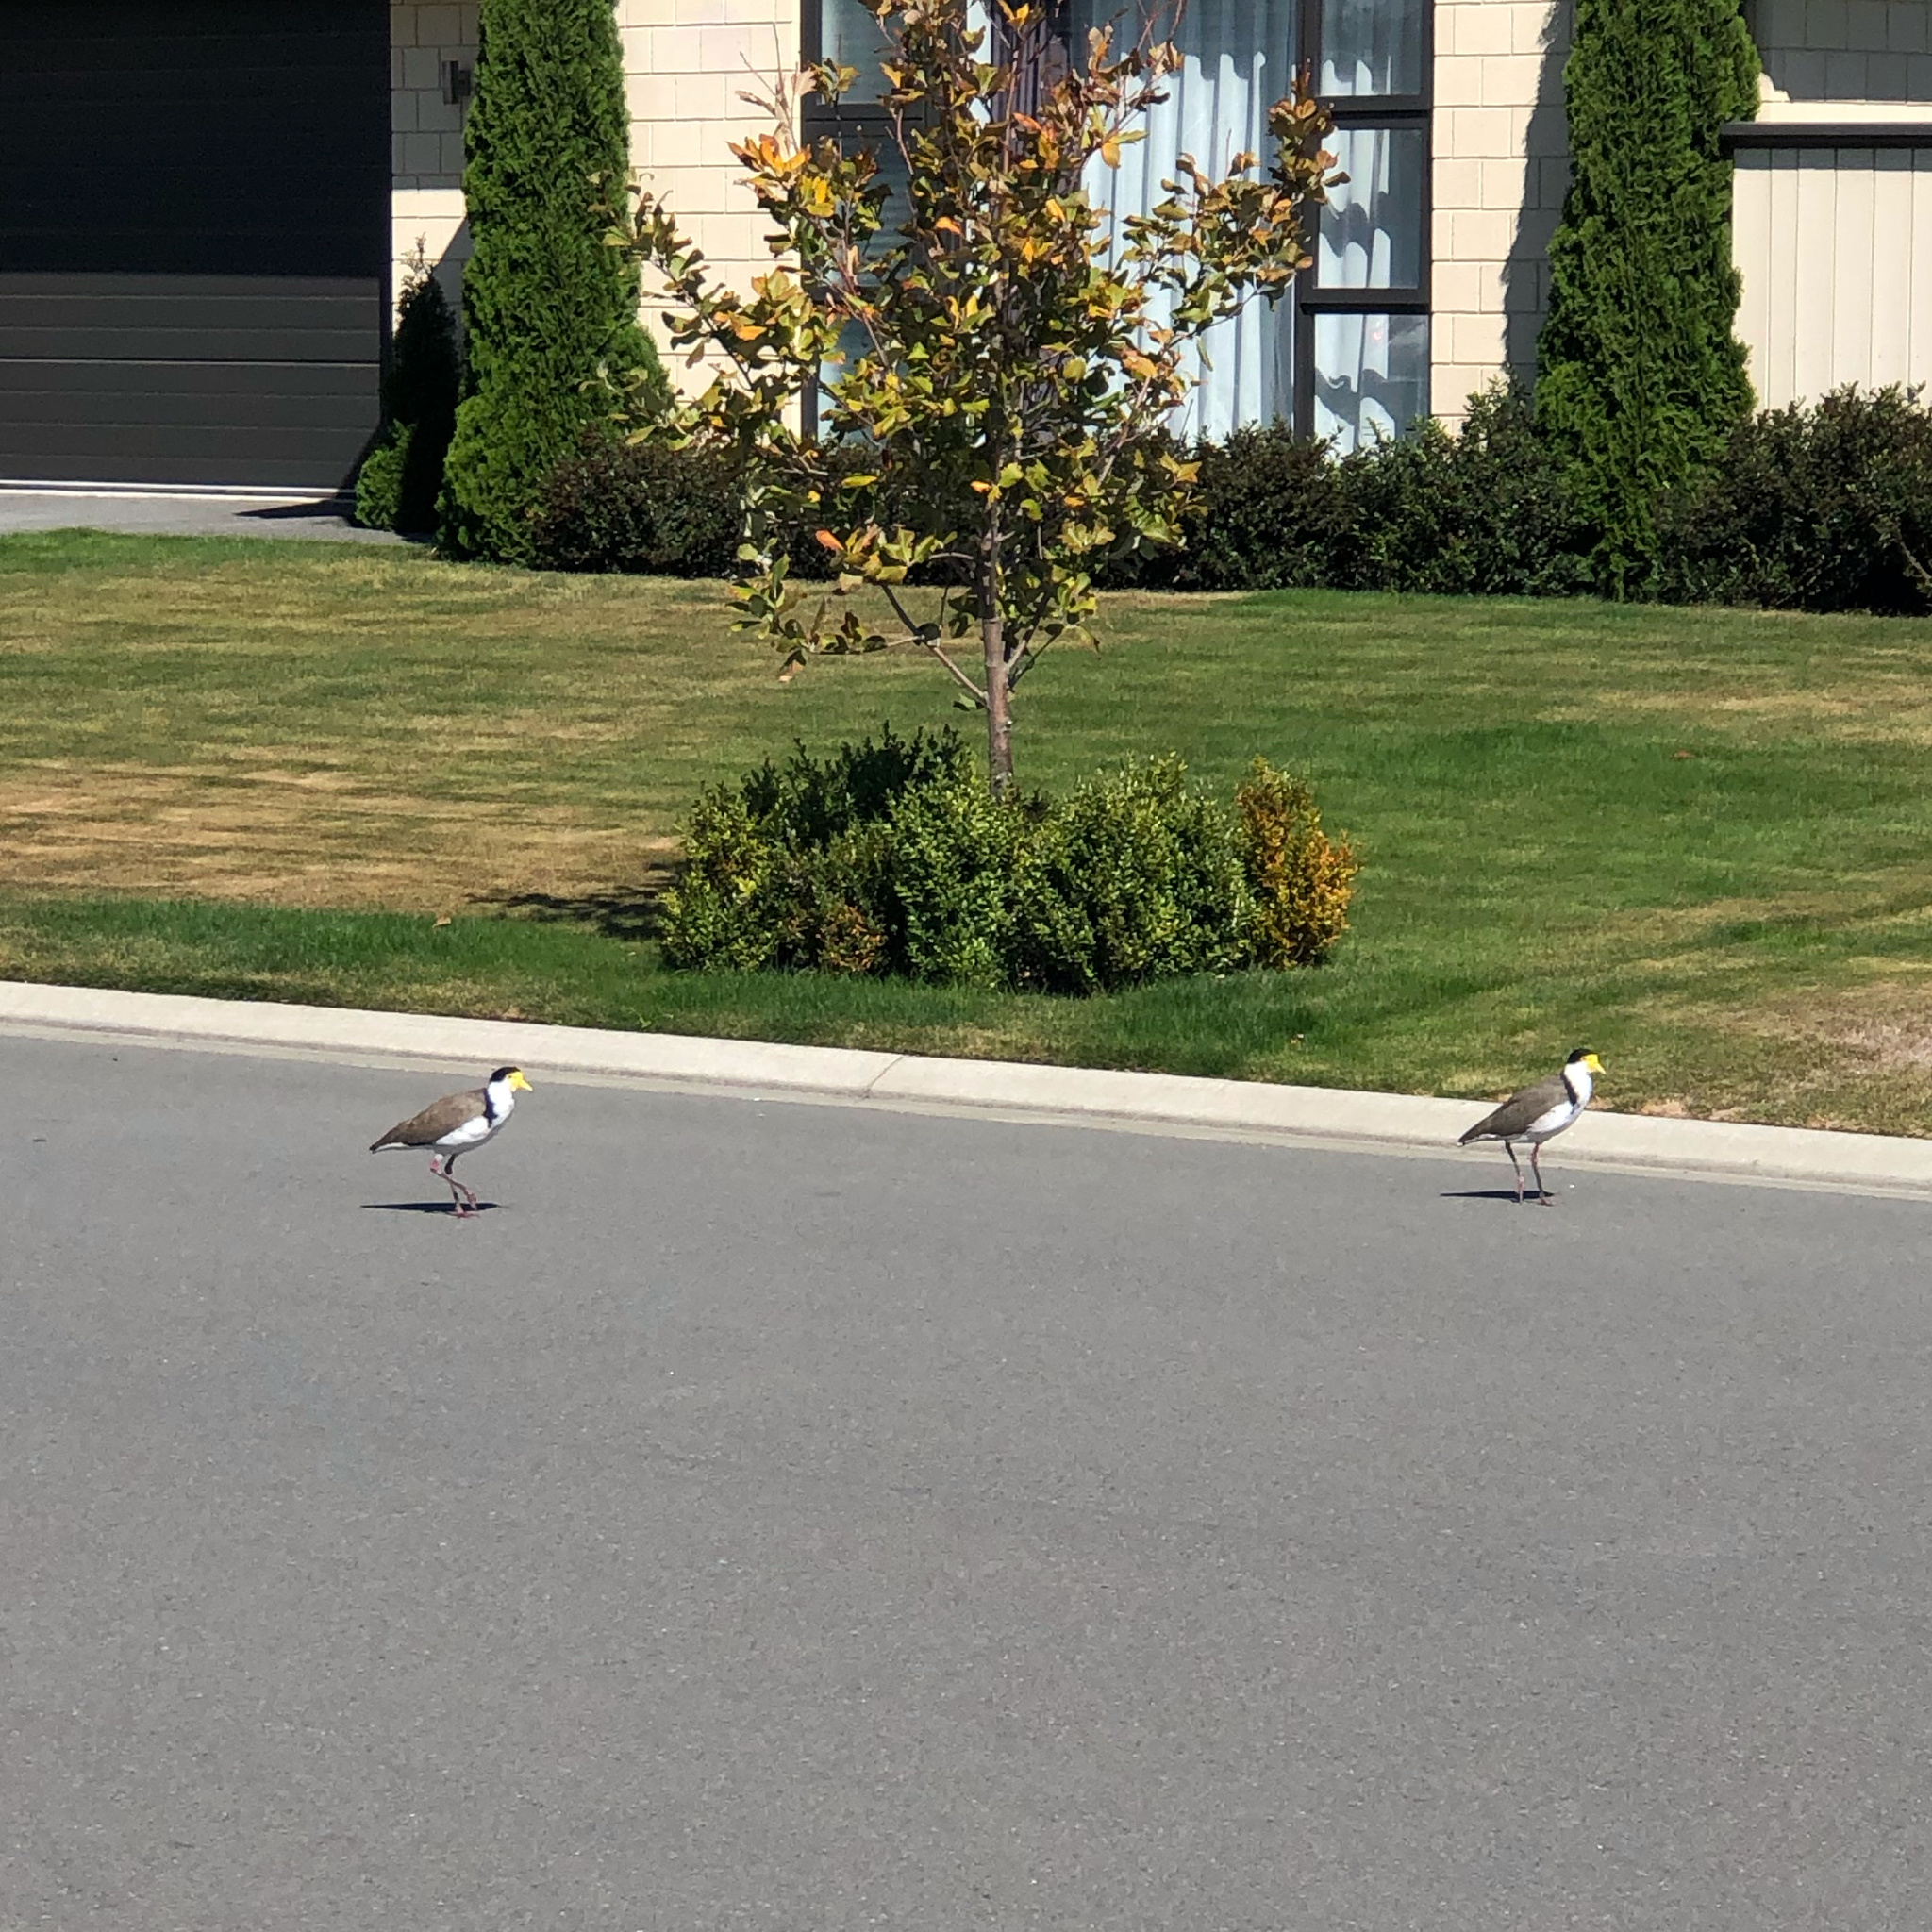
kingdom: Animalia
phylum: Chordata
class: Aves
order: Charadriiformes
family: Charadriidae
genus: Vanellus
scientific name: Vanellus miles
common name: Masked lapwing
